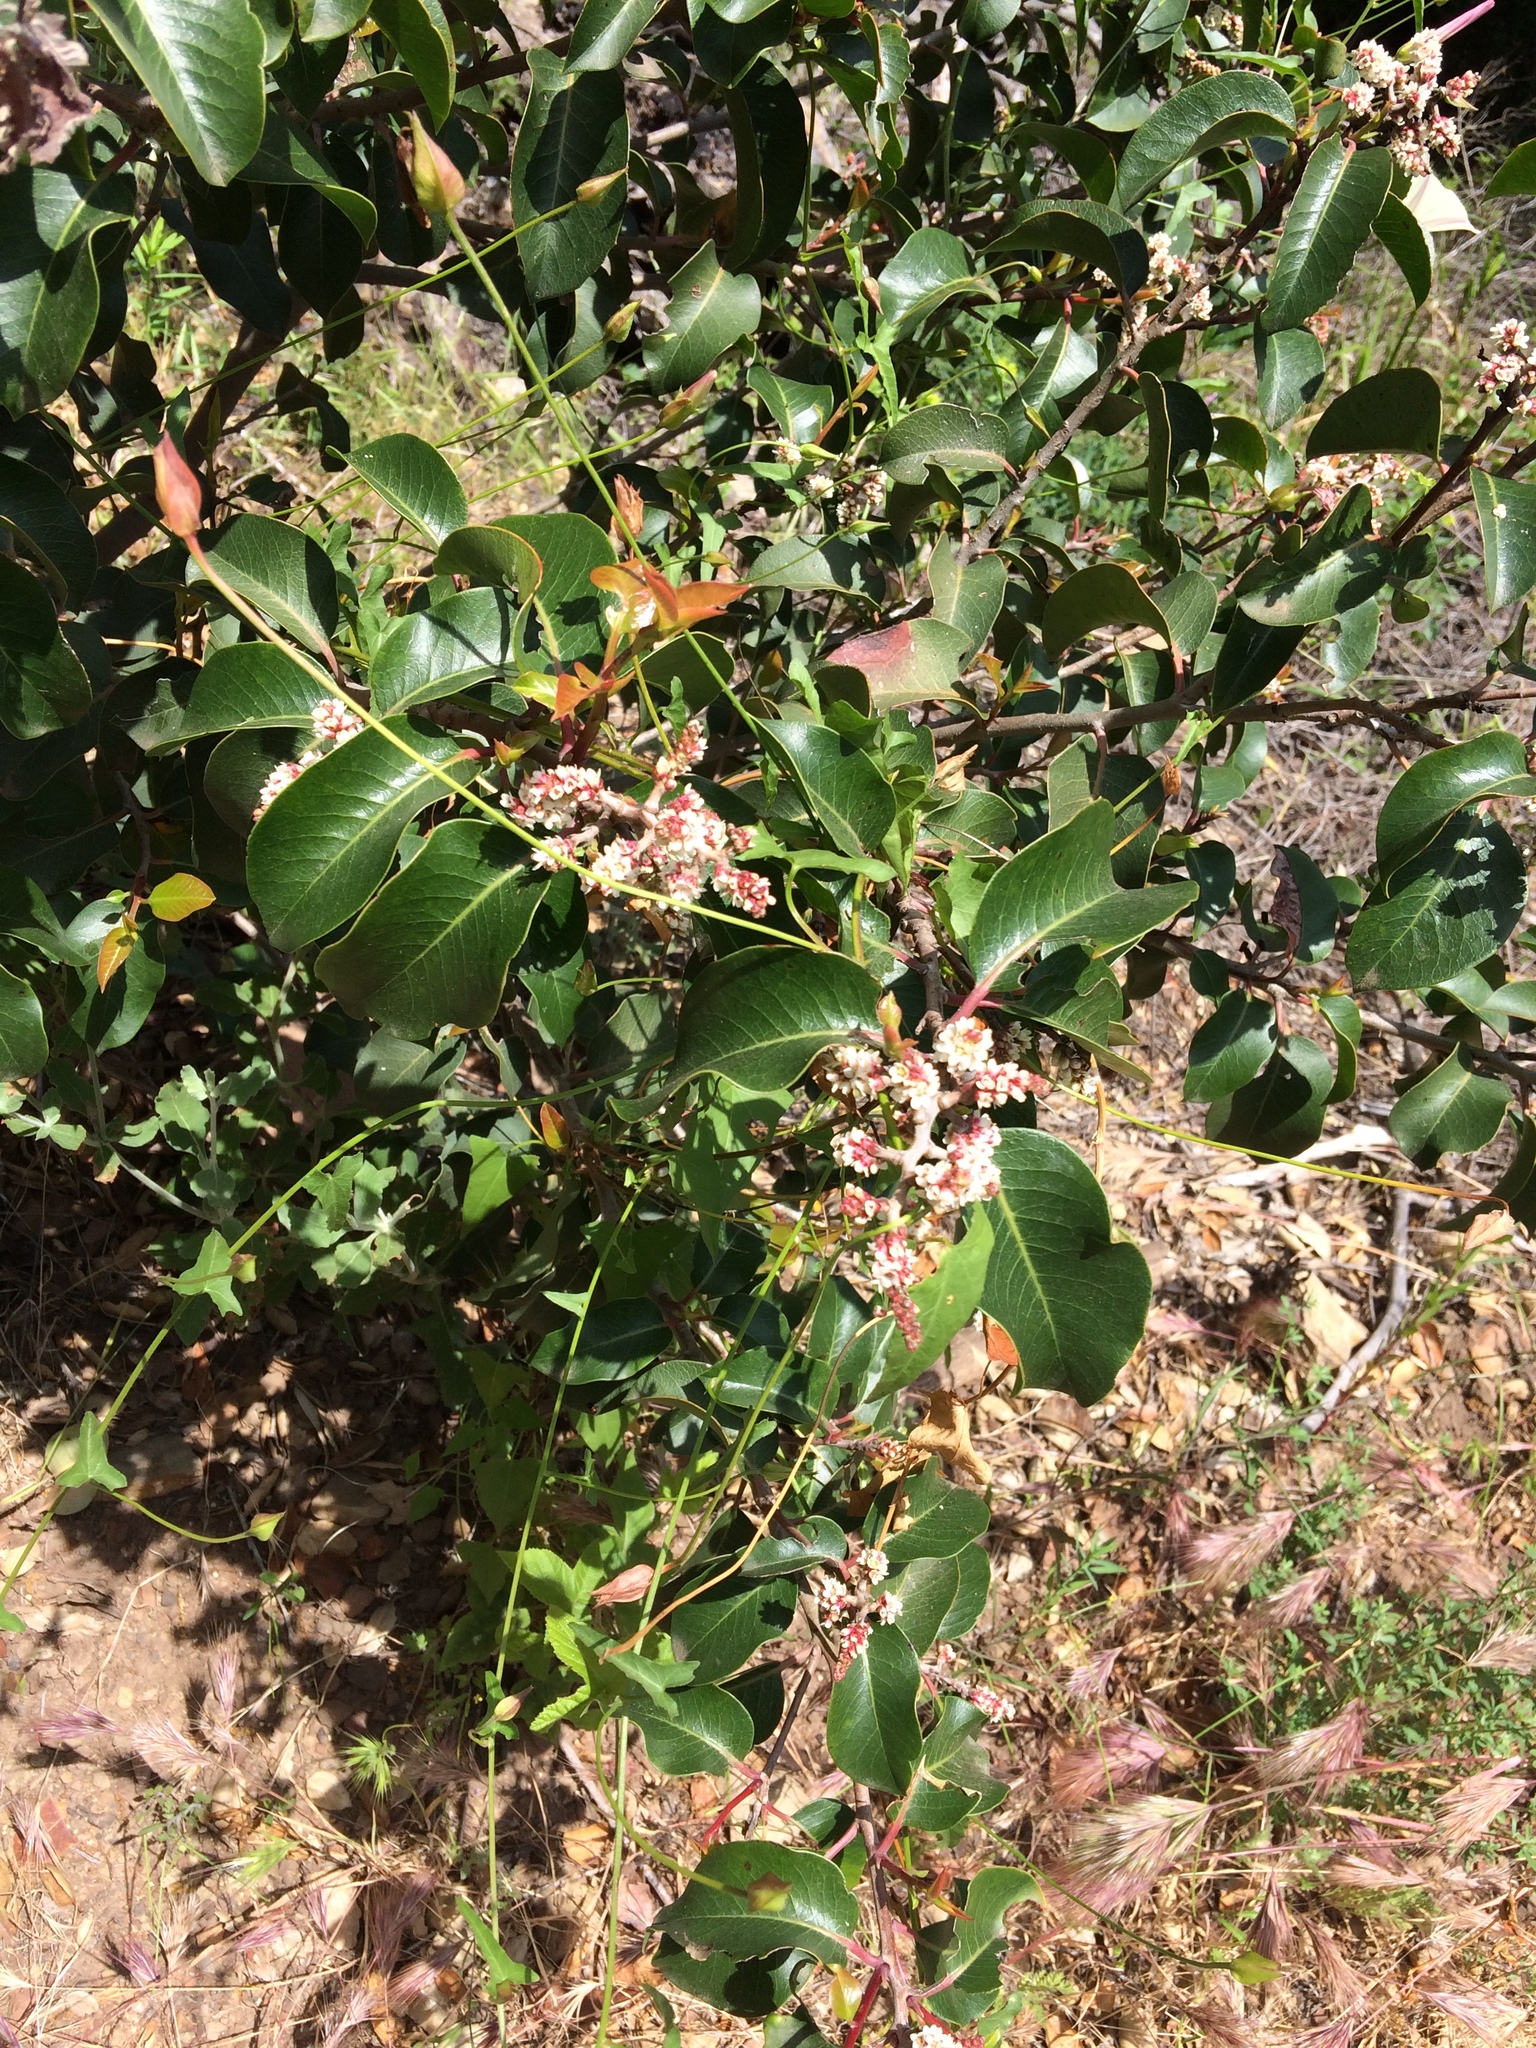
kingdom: Plantae
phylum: Tracheophyta
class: Magnoliopsida
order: Sapindales
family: Anacardiaceae
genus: Rhus
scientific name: Rhus ovata
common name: Sugar sumac
